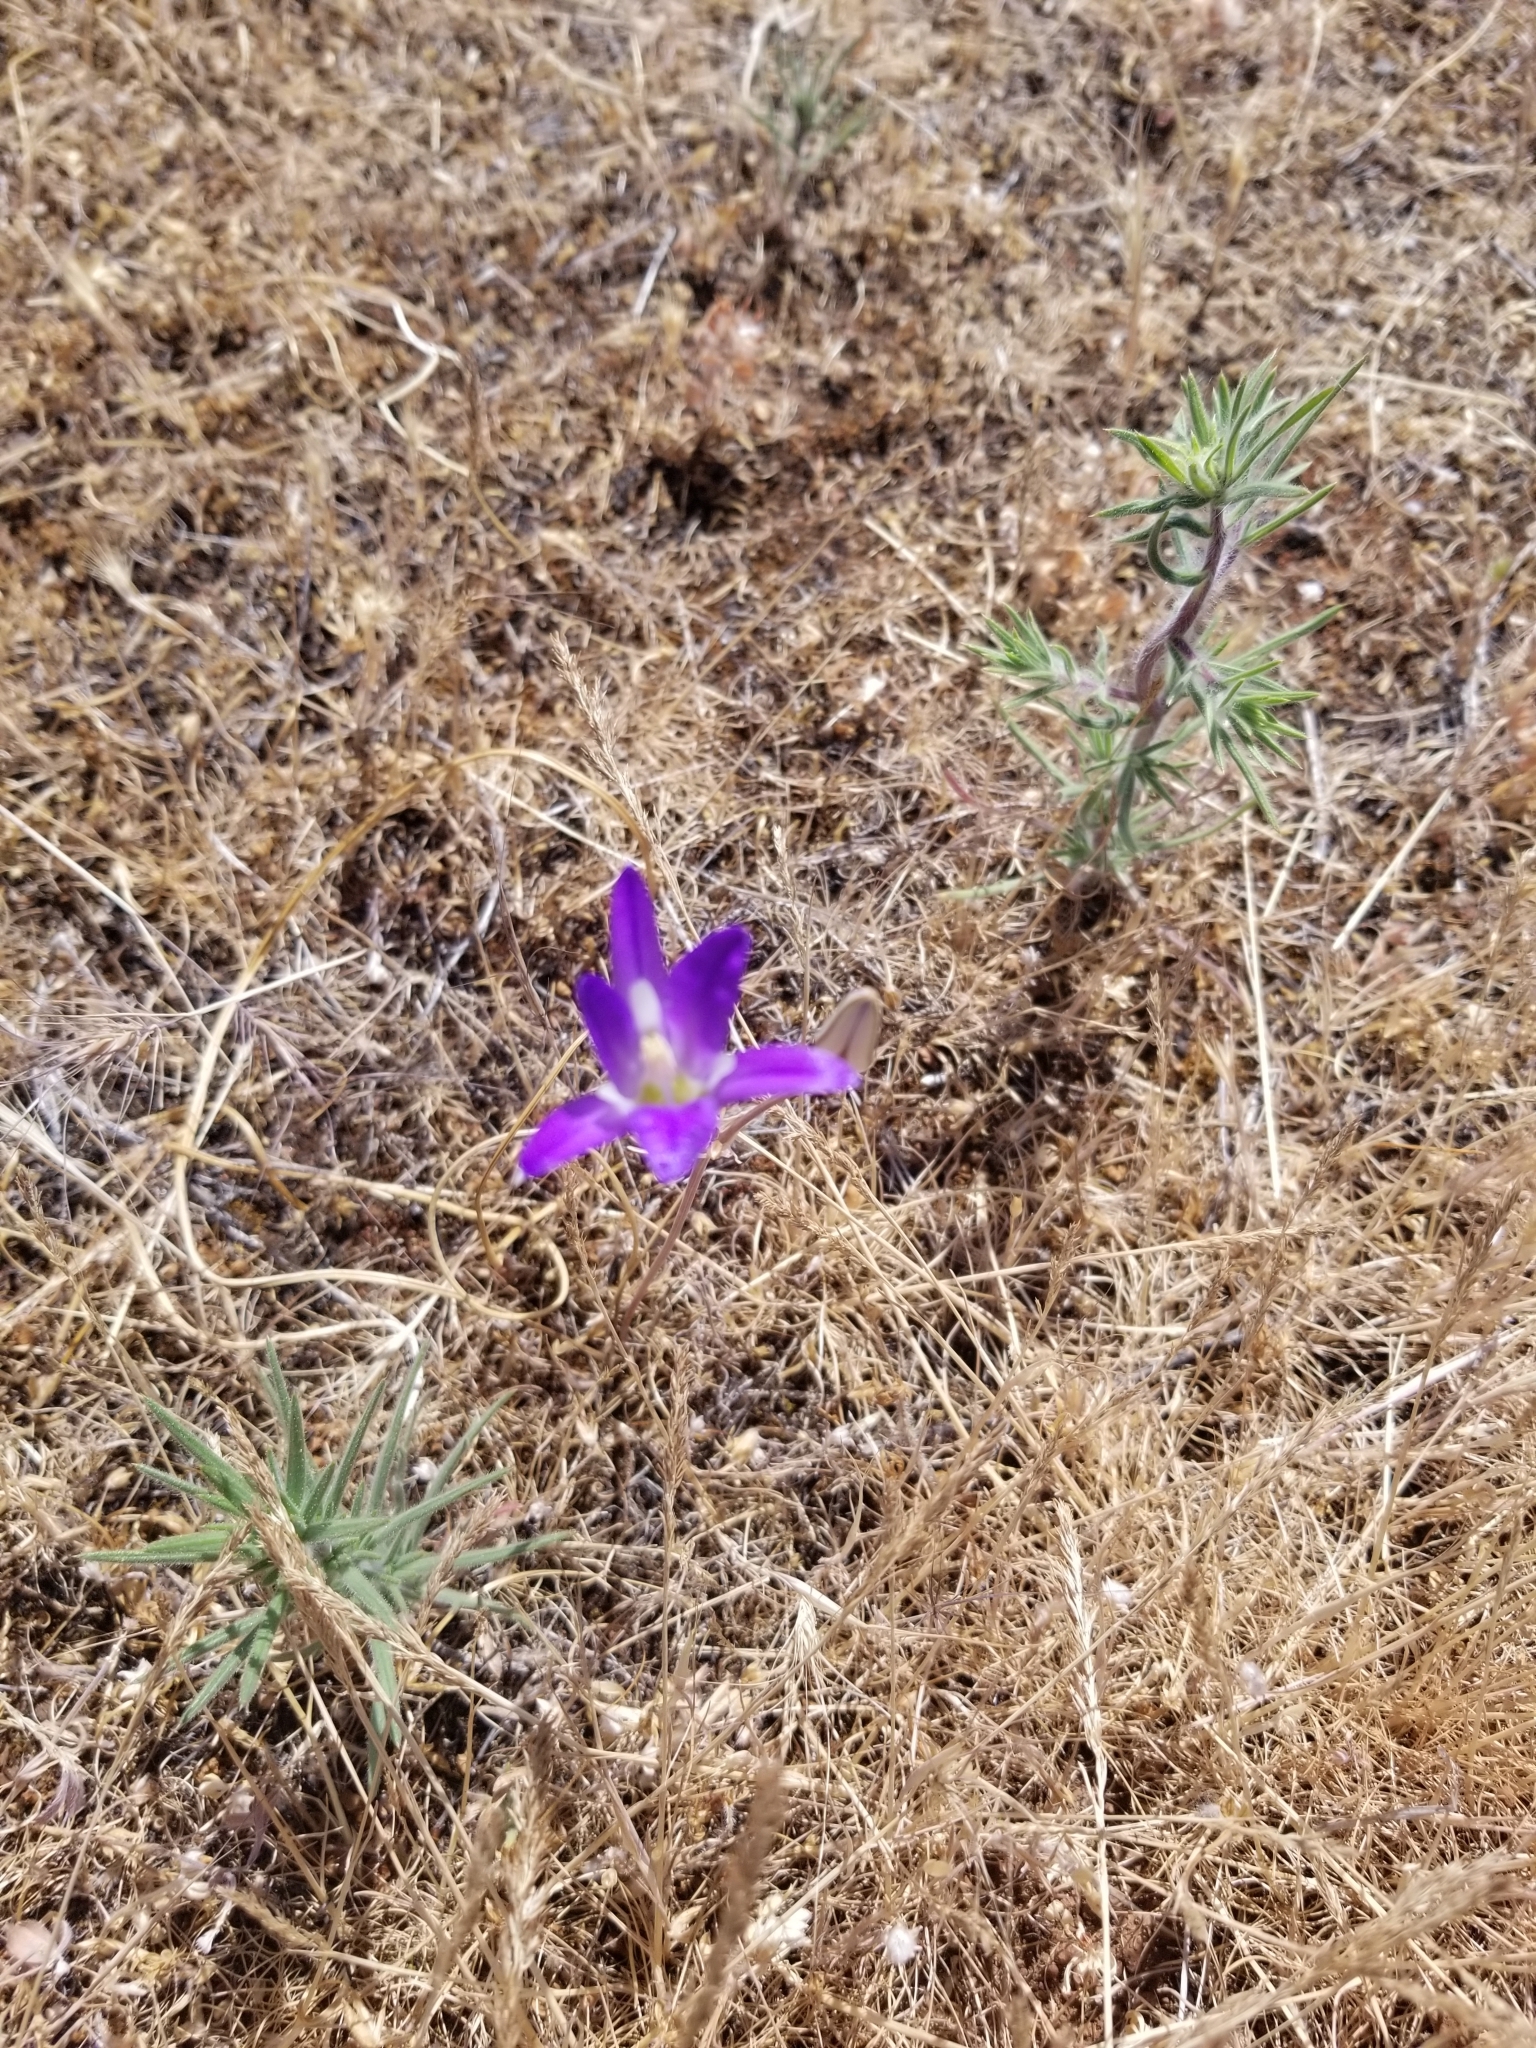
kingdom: Plantae
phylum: Tracheophyta
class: Liliopsida
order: Asparagales
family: Asparagaceae
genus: Brodiaea
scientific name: Brodiaea elegans
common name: Elegant cluster-lily
